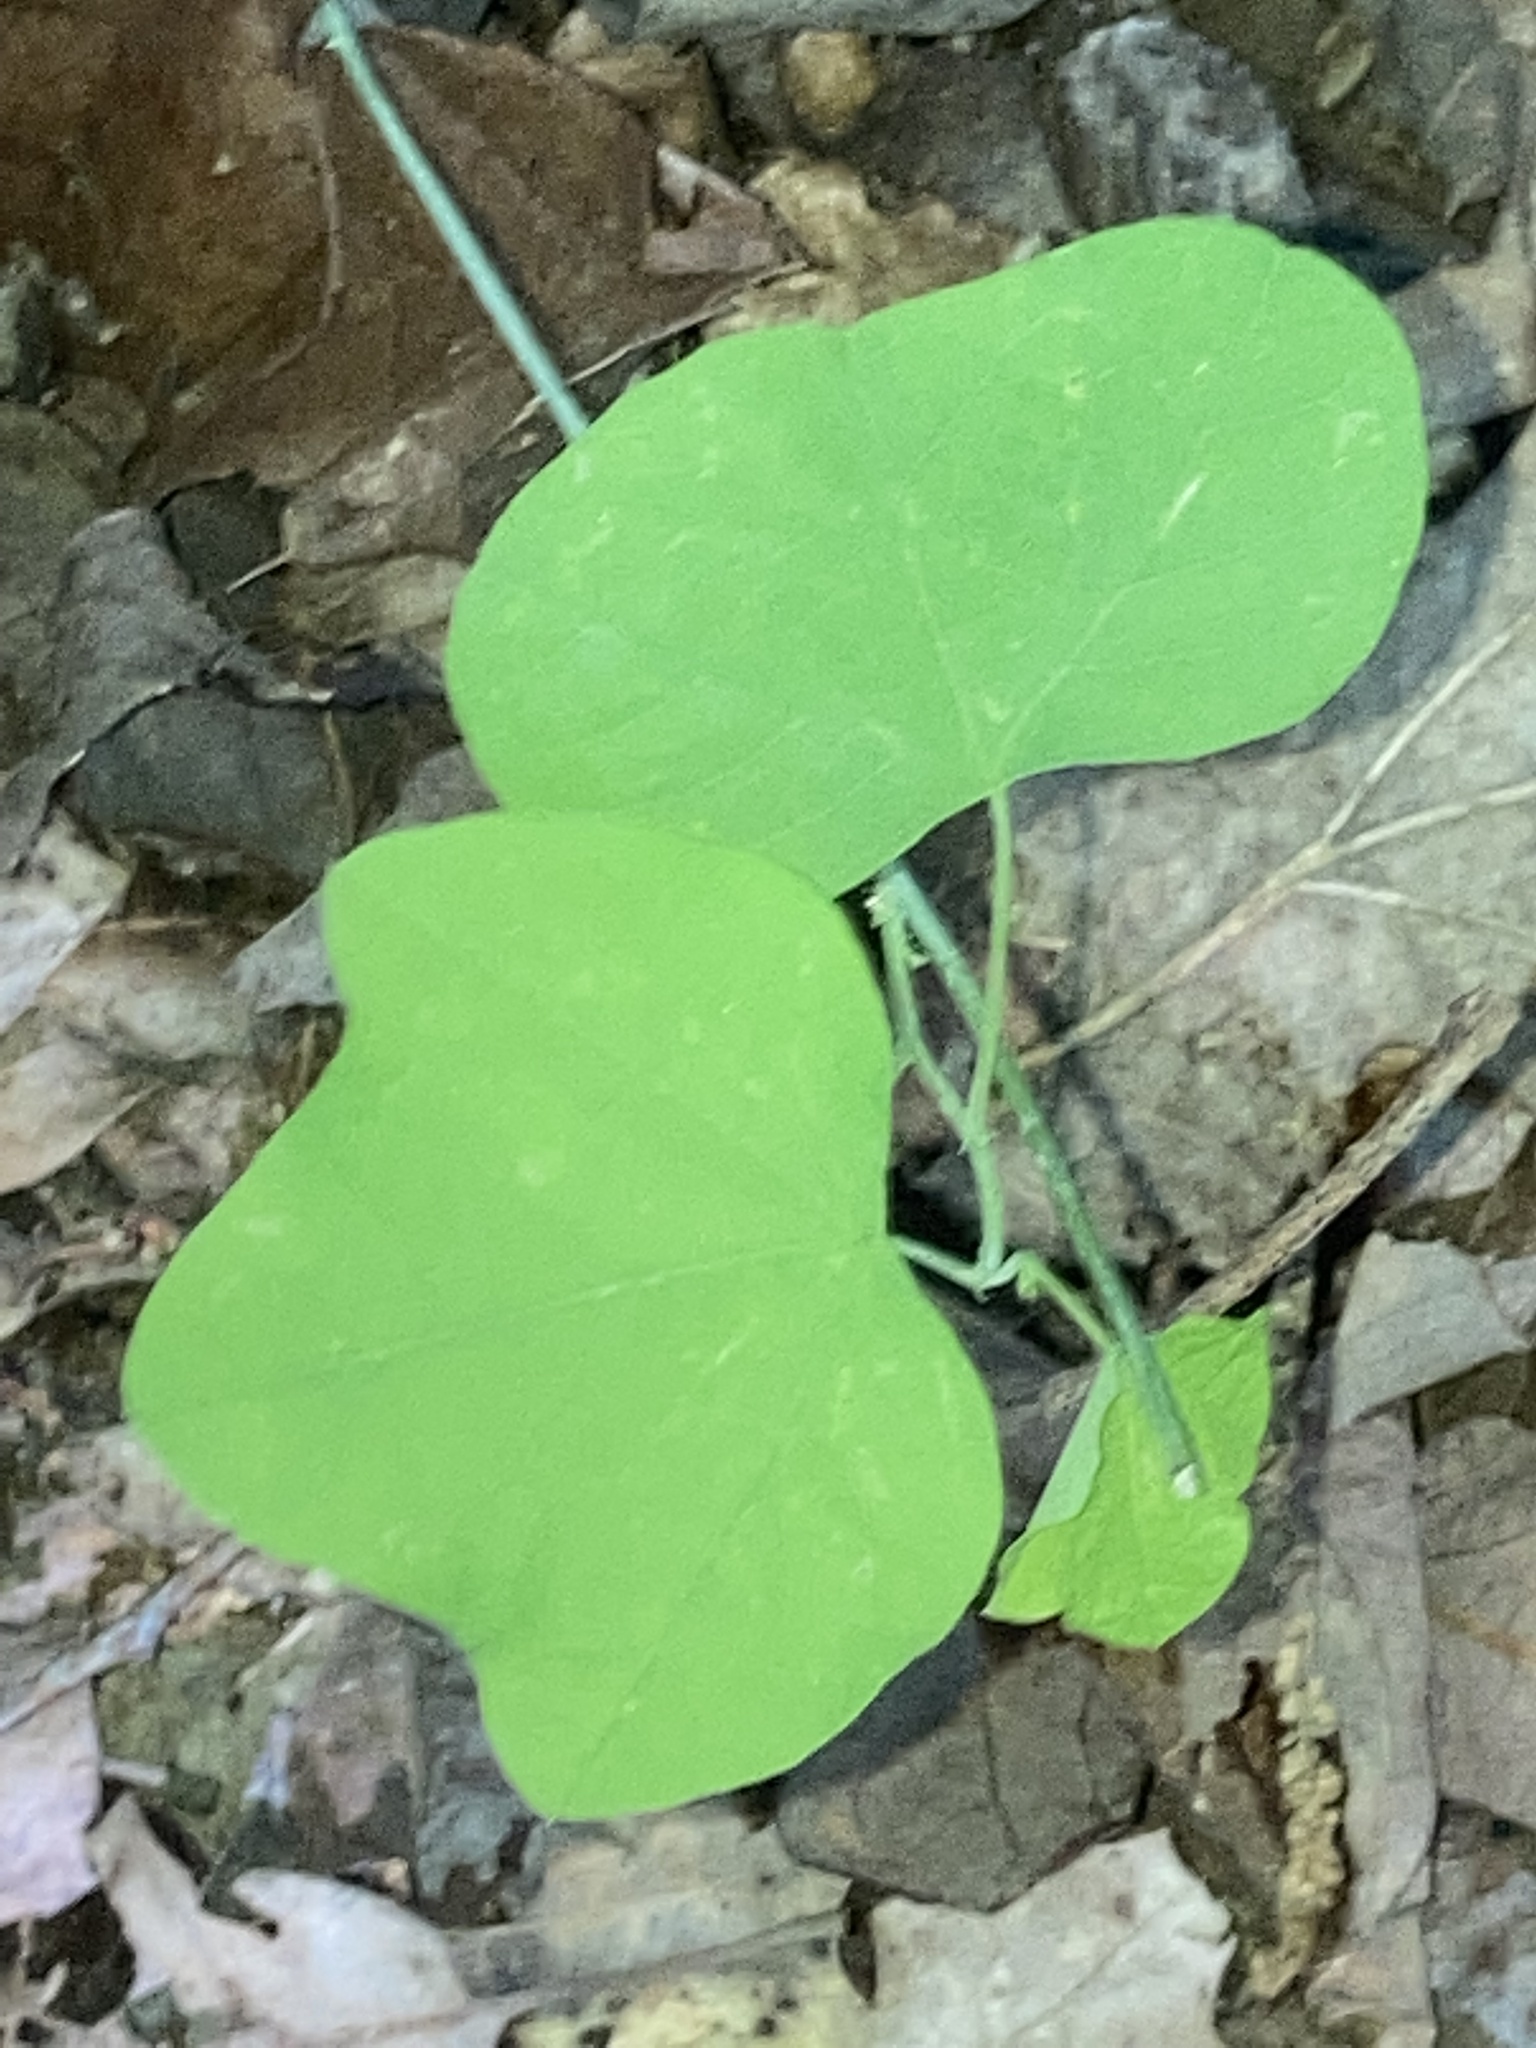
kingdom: Plantae
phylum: Tracheophyta
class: Magnoliopsida
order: Malpighiales
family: Passifloraceae
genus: Passiflora
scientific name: Passiflora lutea
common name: Yellow passionflower
